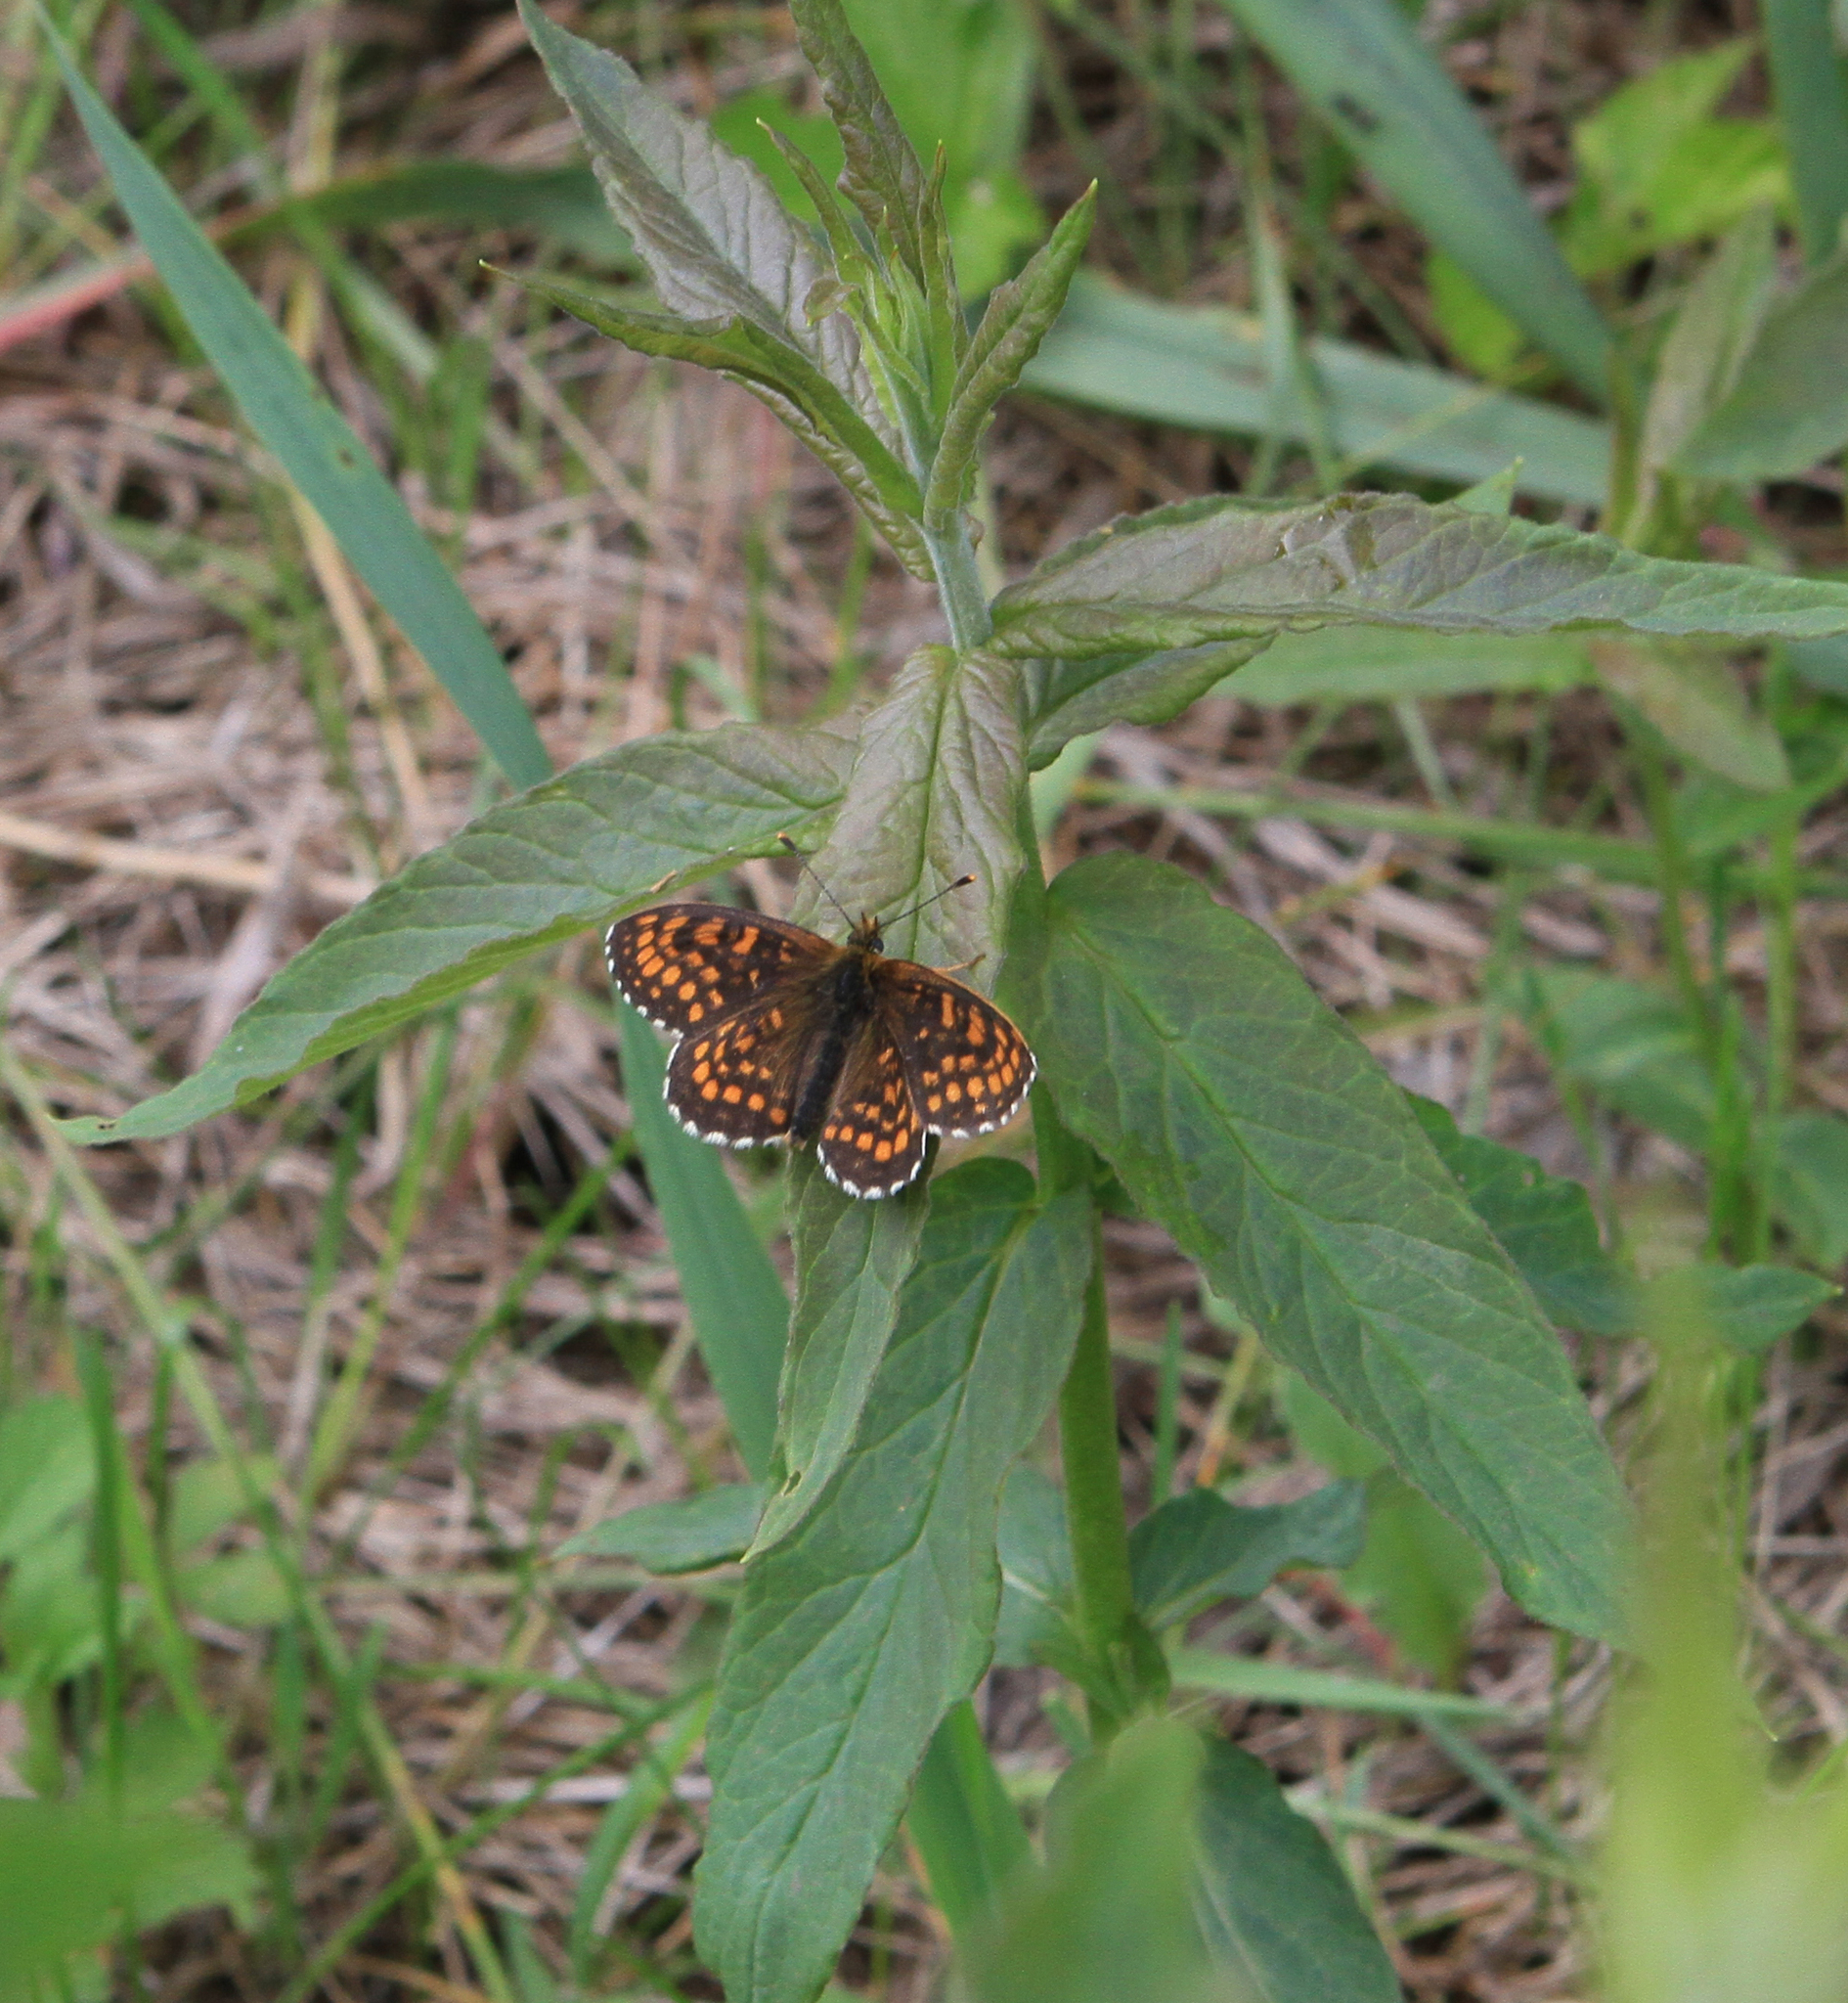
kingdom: Animalia
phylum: Arthropoda
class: Insecta
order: Lepidoptera
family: Nymphalidae
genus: Melitaea
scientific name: Melitaea
